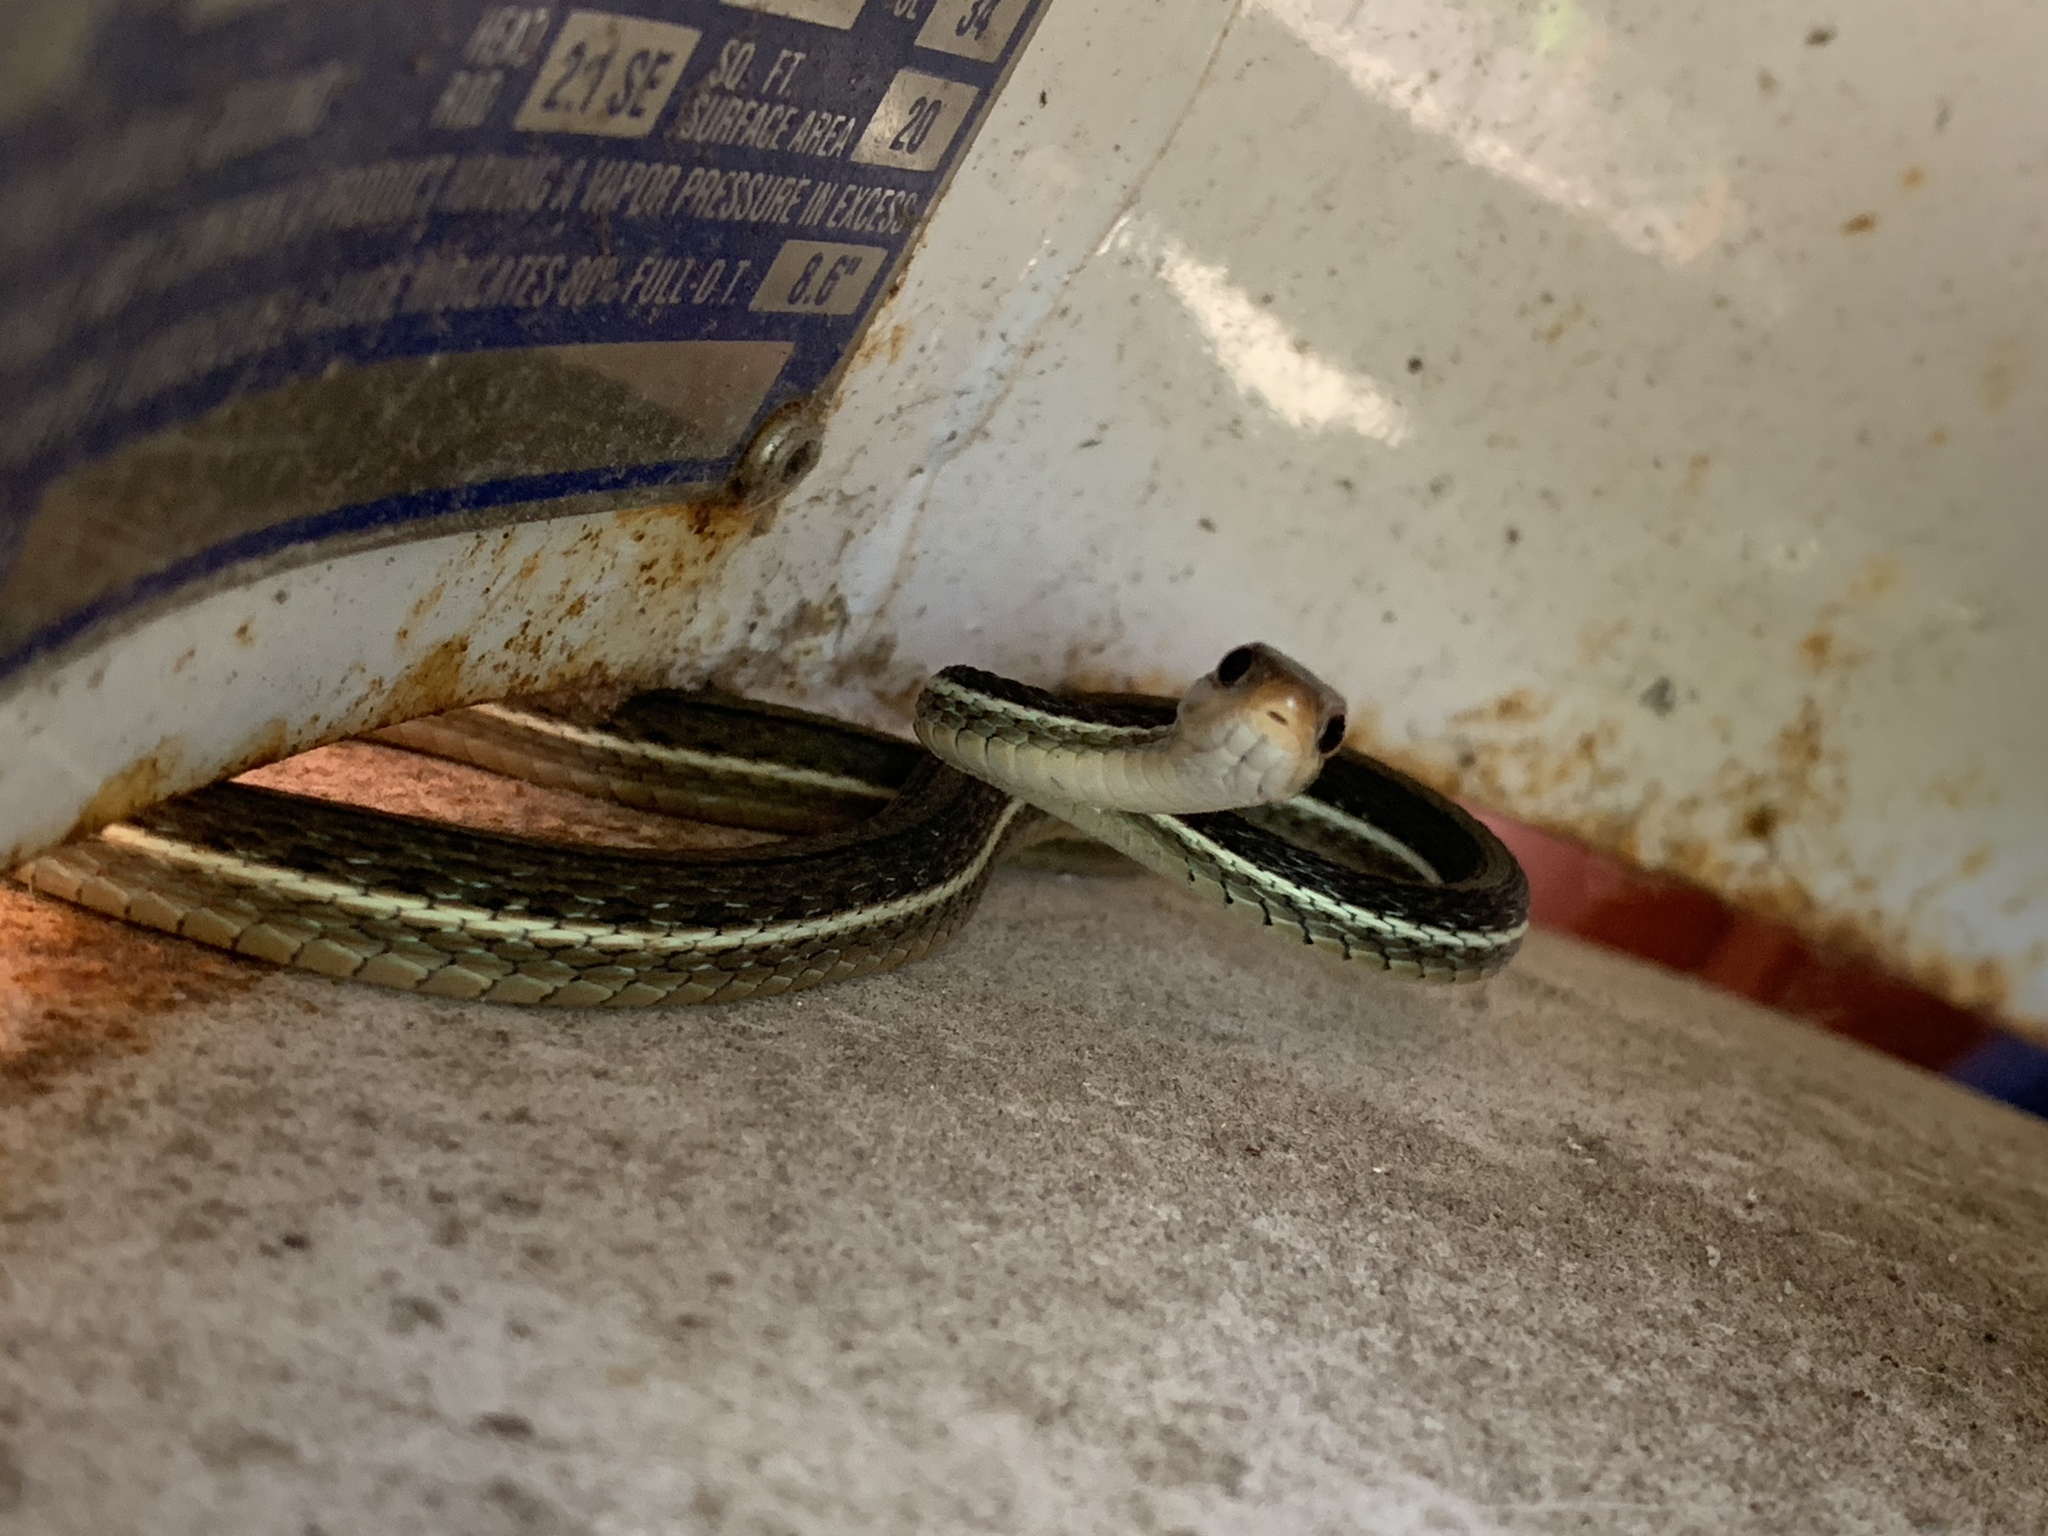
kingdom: Animalia
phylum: Chordata
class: Squamata
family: Colubridae
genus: Thamnophis
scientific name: Thamnophis saurita
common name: Eastern ribbonsnake
